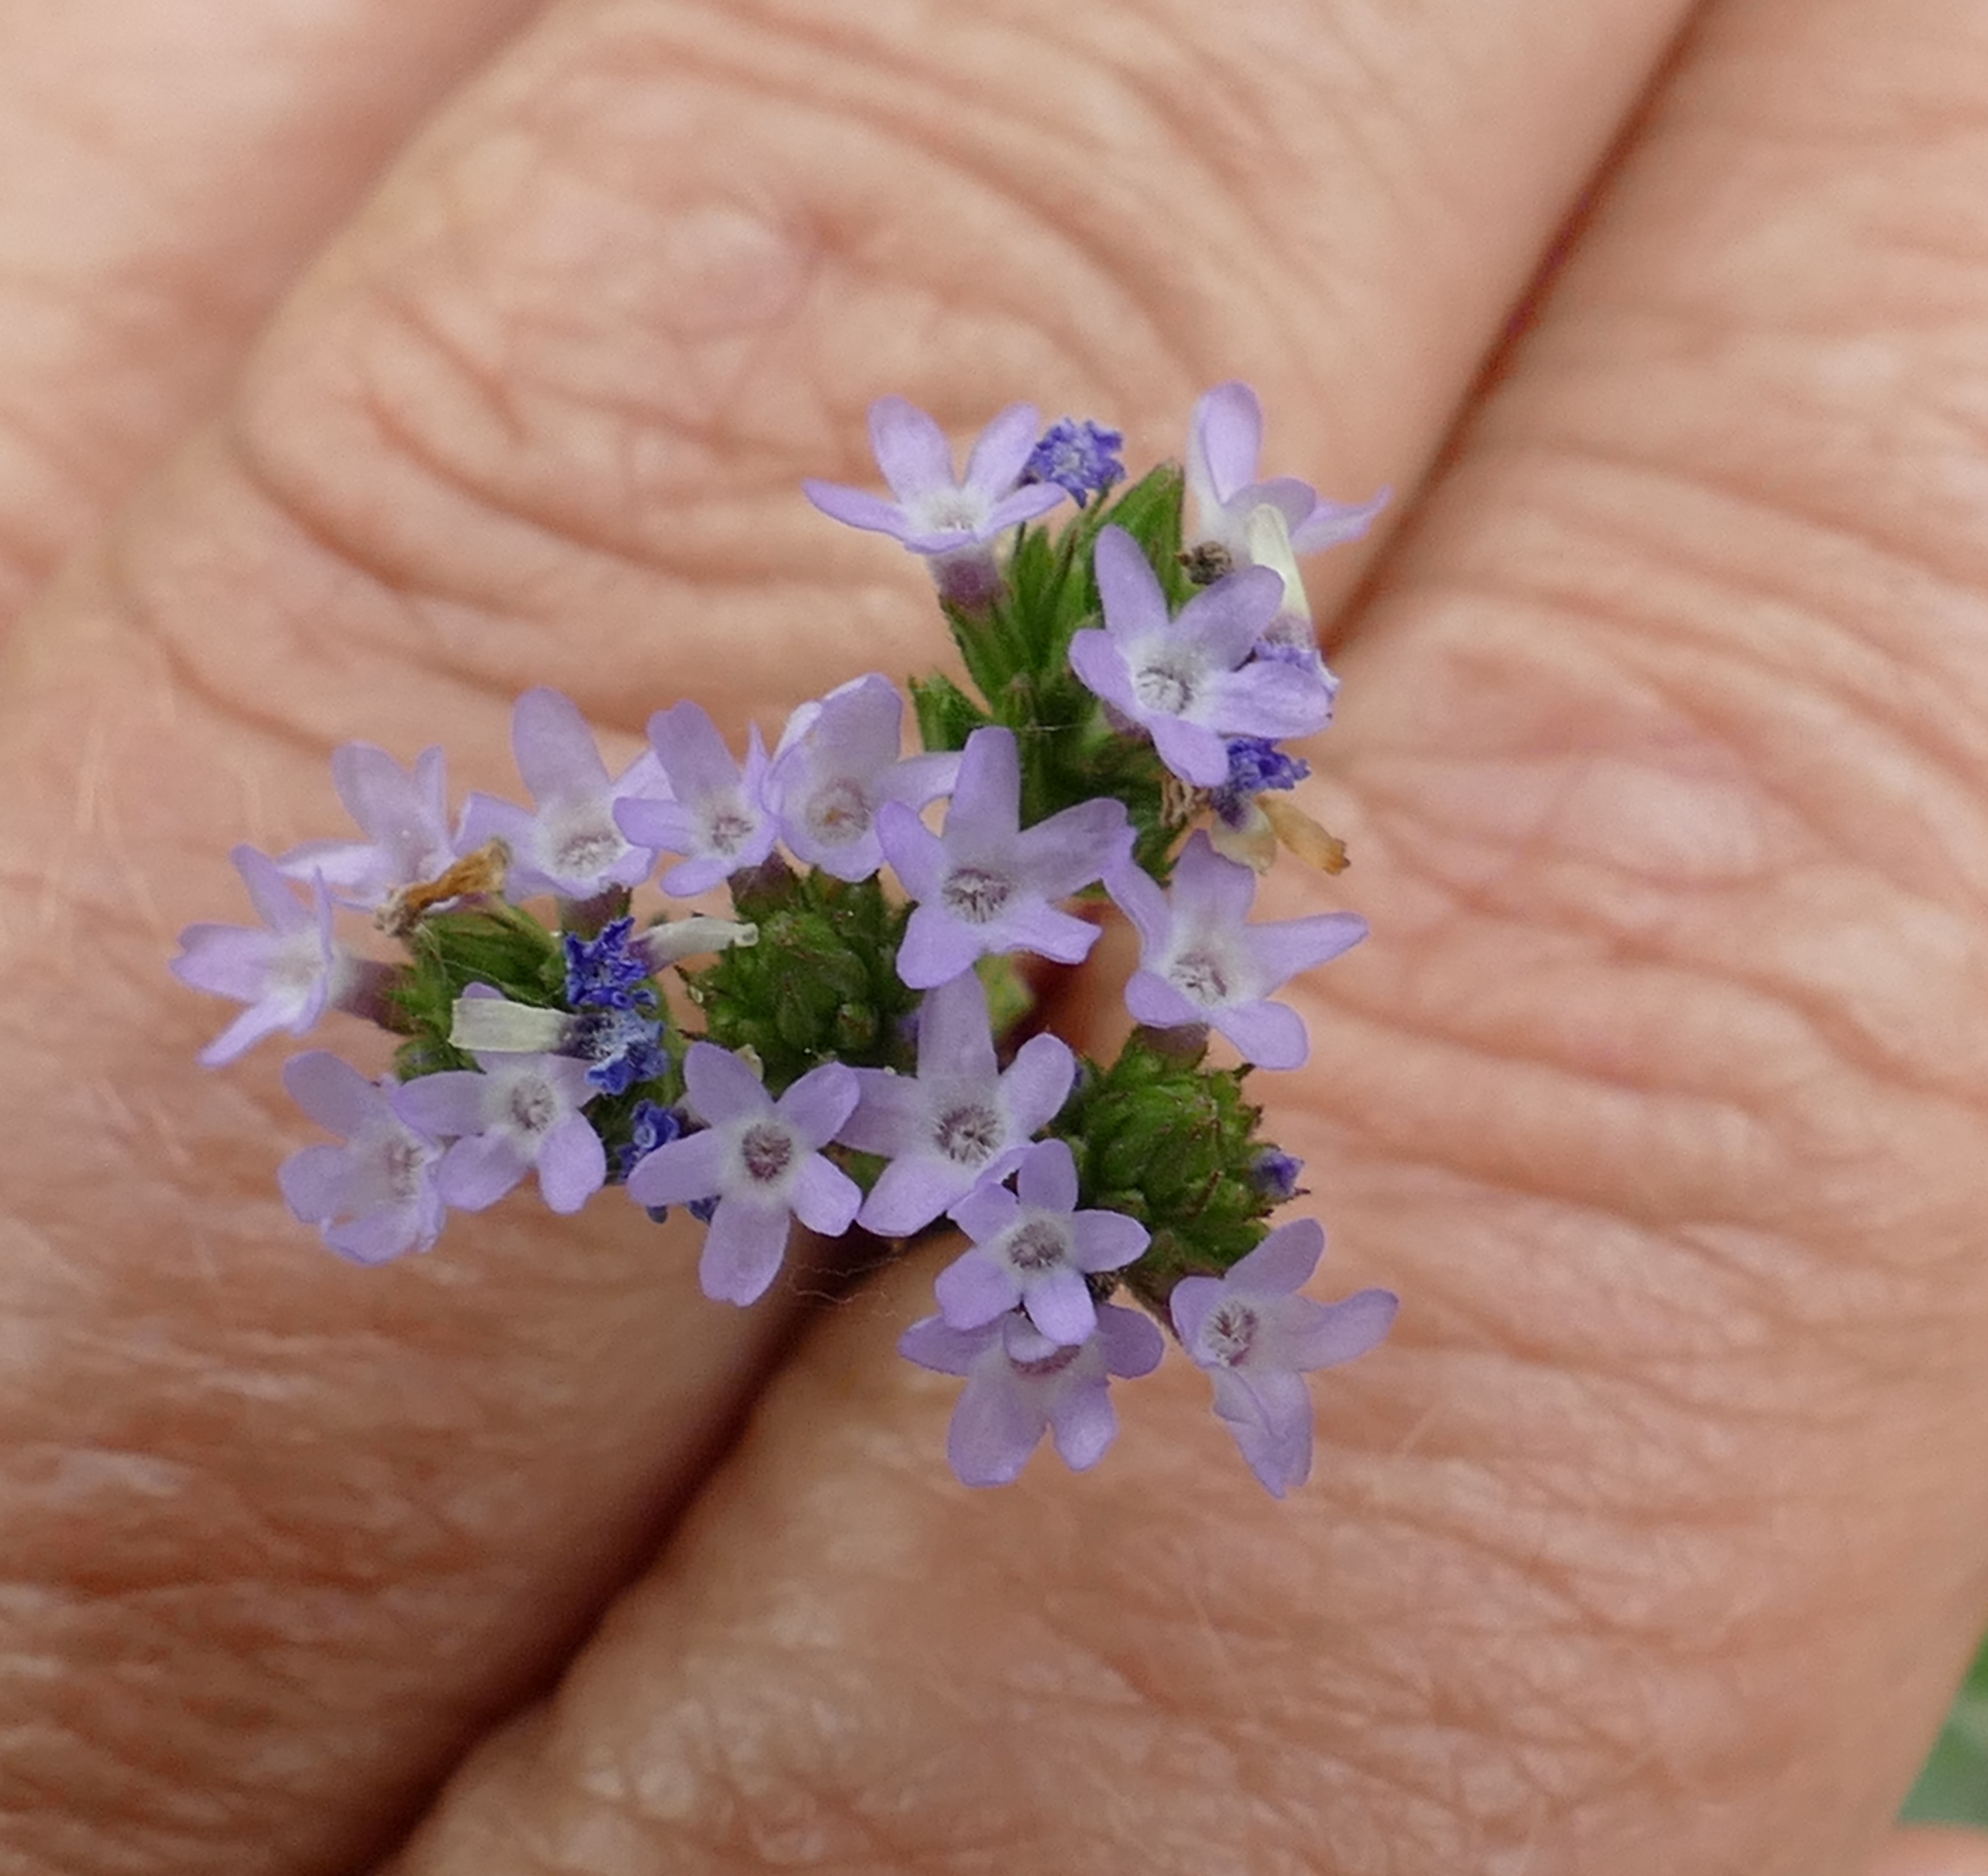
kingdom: Plantae
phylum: Tracheophyta
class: Magnoliopsida
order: Lamiales
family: Verbenaceae
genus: Verbena
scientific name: Verbena brasiliensis
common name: Brazilian vervain
